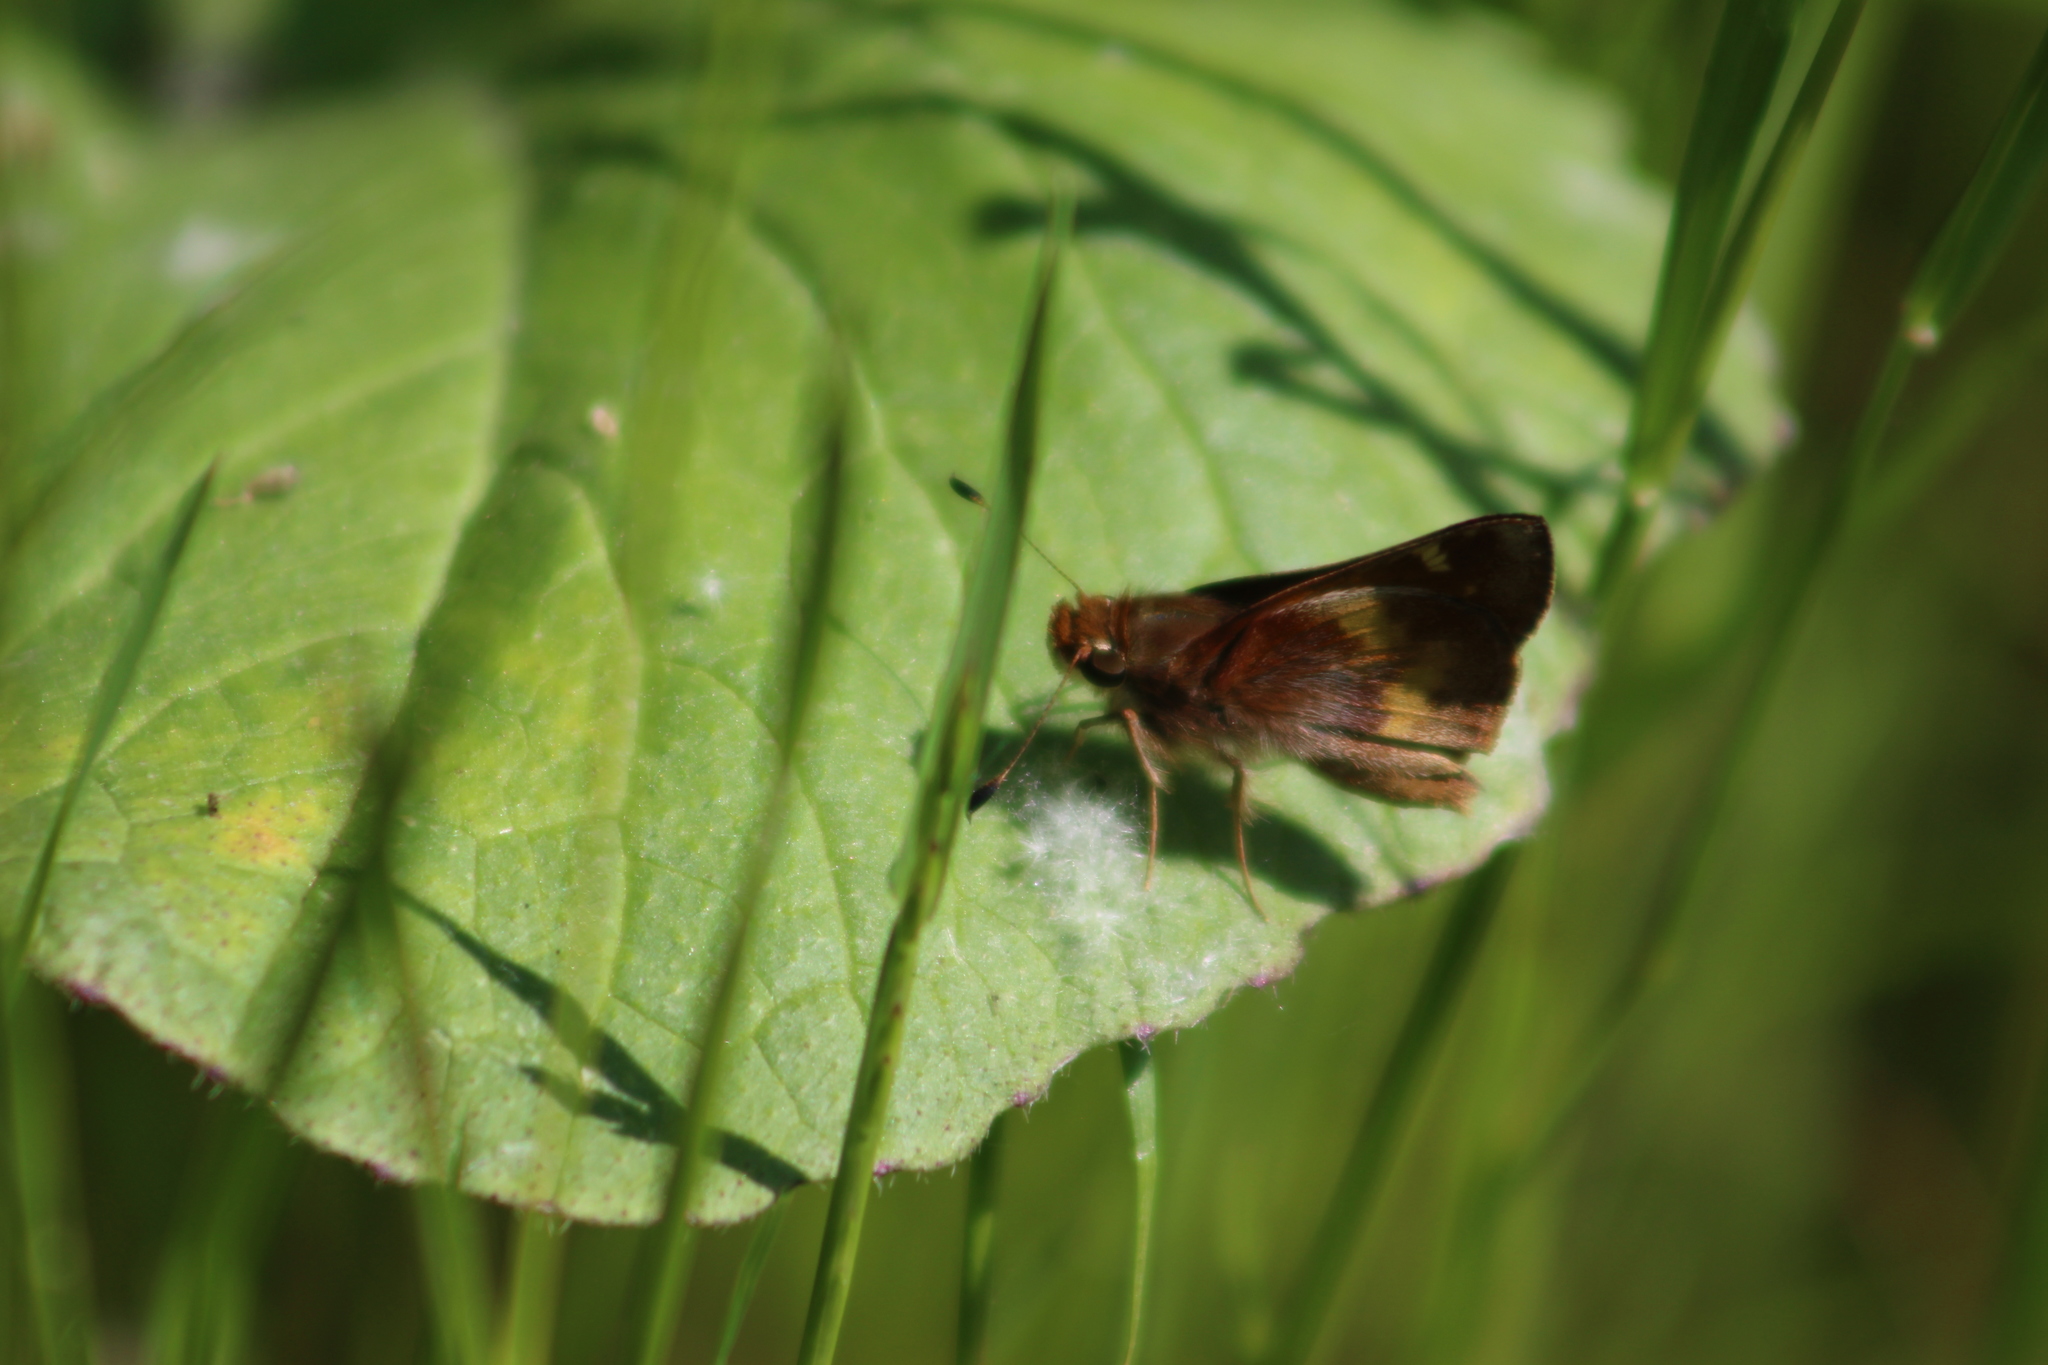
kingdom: Animalia
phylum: Arthropoda
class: Insecta
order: Lepidoptera
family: Hesperiidae
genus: Lon
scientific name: Lon melane
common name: Umber skipper
